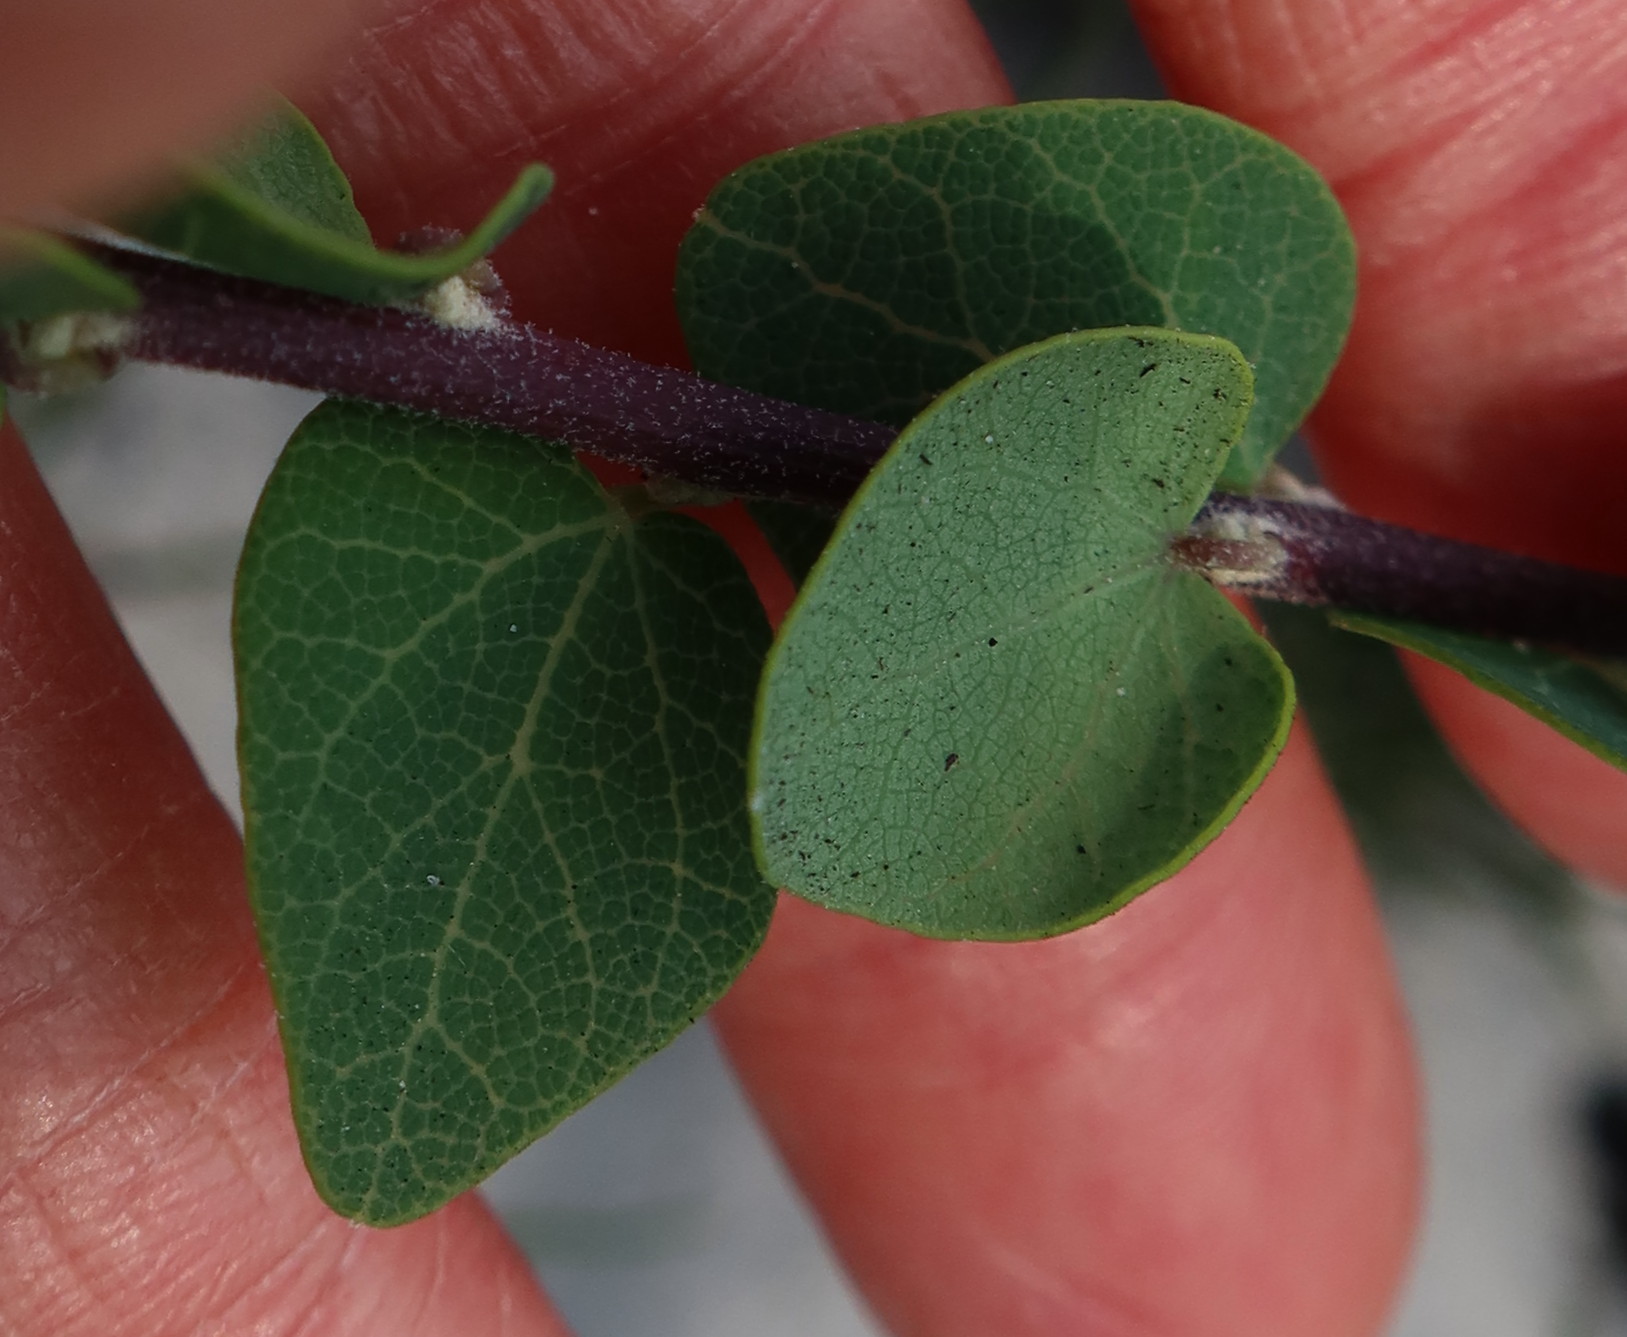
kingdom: Plantae
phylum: Tracheophyta
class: Magnoliopsida
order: Ranunculales
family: Menispermaceae
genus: Cissampelos
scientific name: Cissampelos capensis
